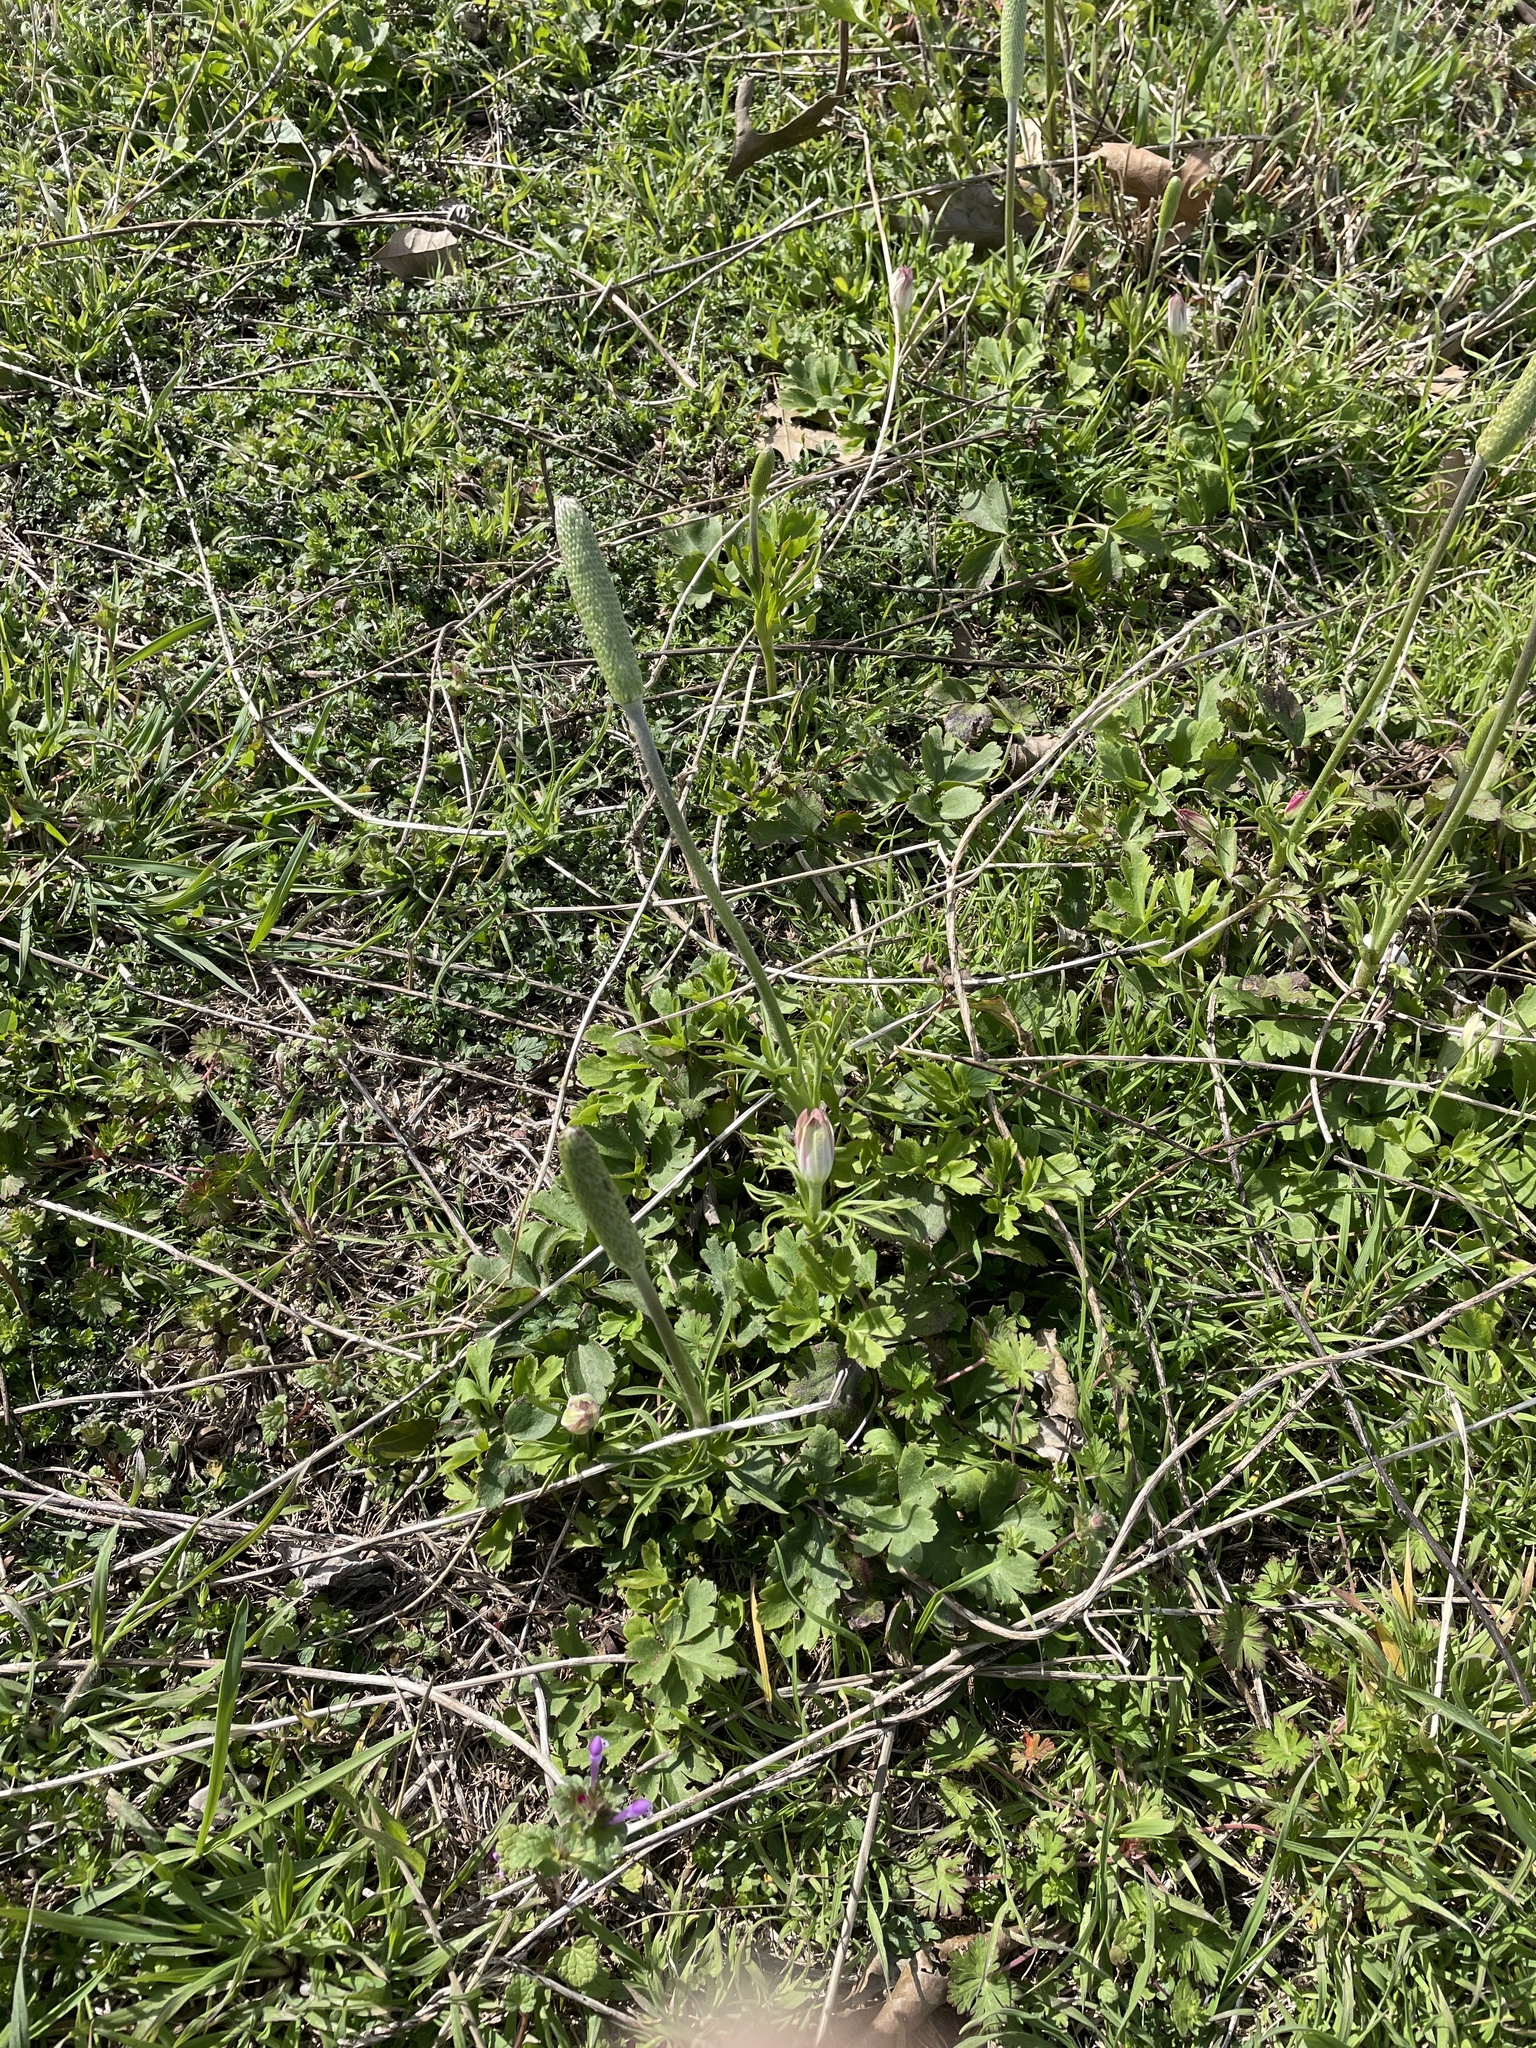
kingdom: Plantae
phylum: Tracheophyta
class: Magnoliopsida
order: Ranunculales
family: Ranunculaceae
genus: Anemone
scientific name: Anemone berlandieri
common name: Ten-petal anemone
